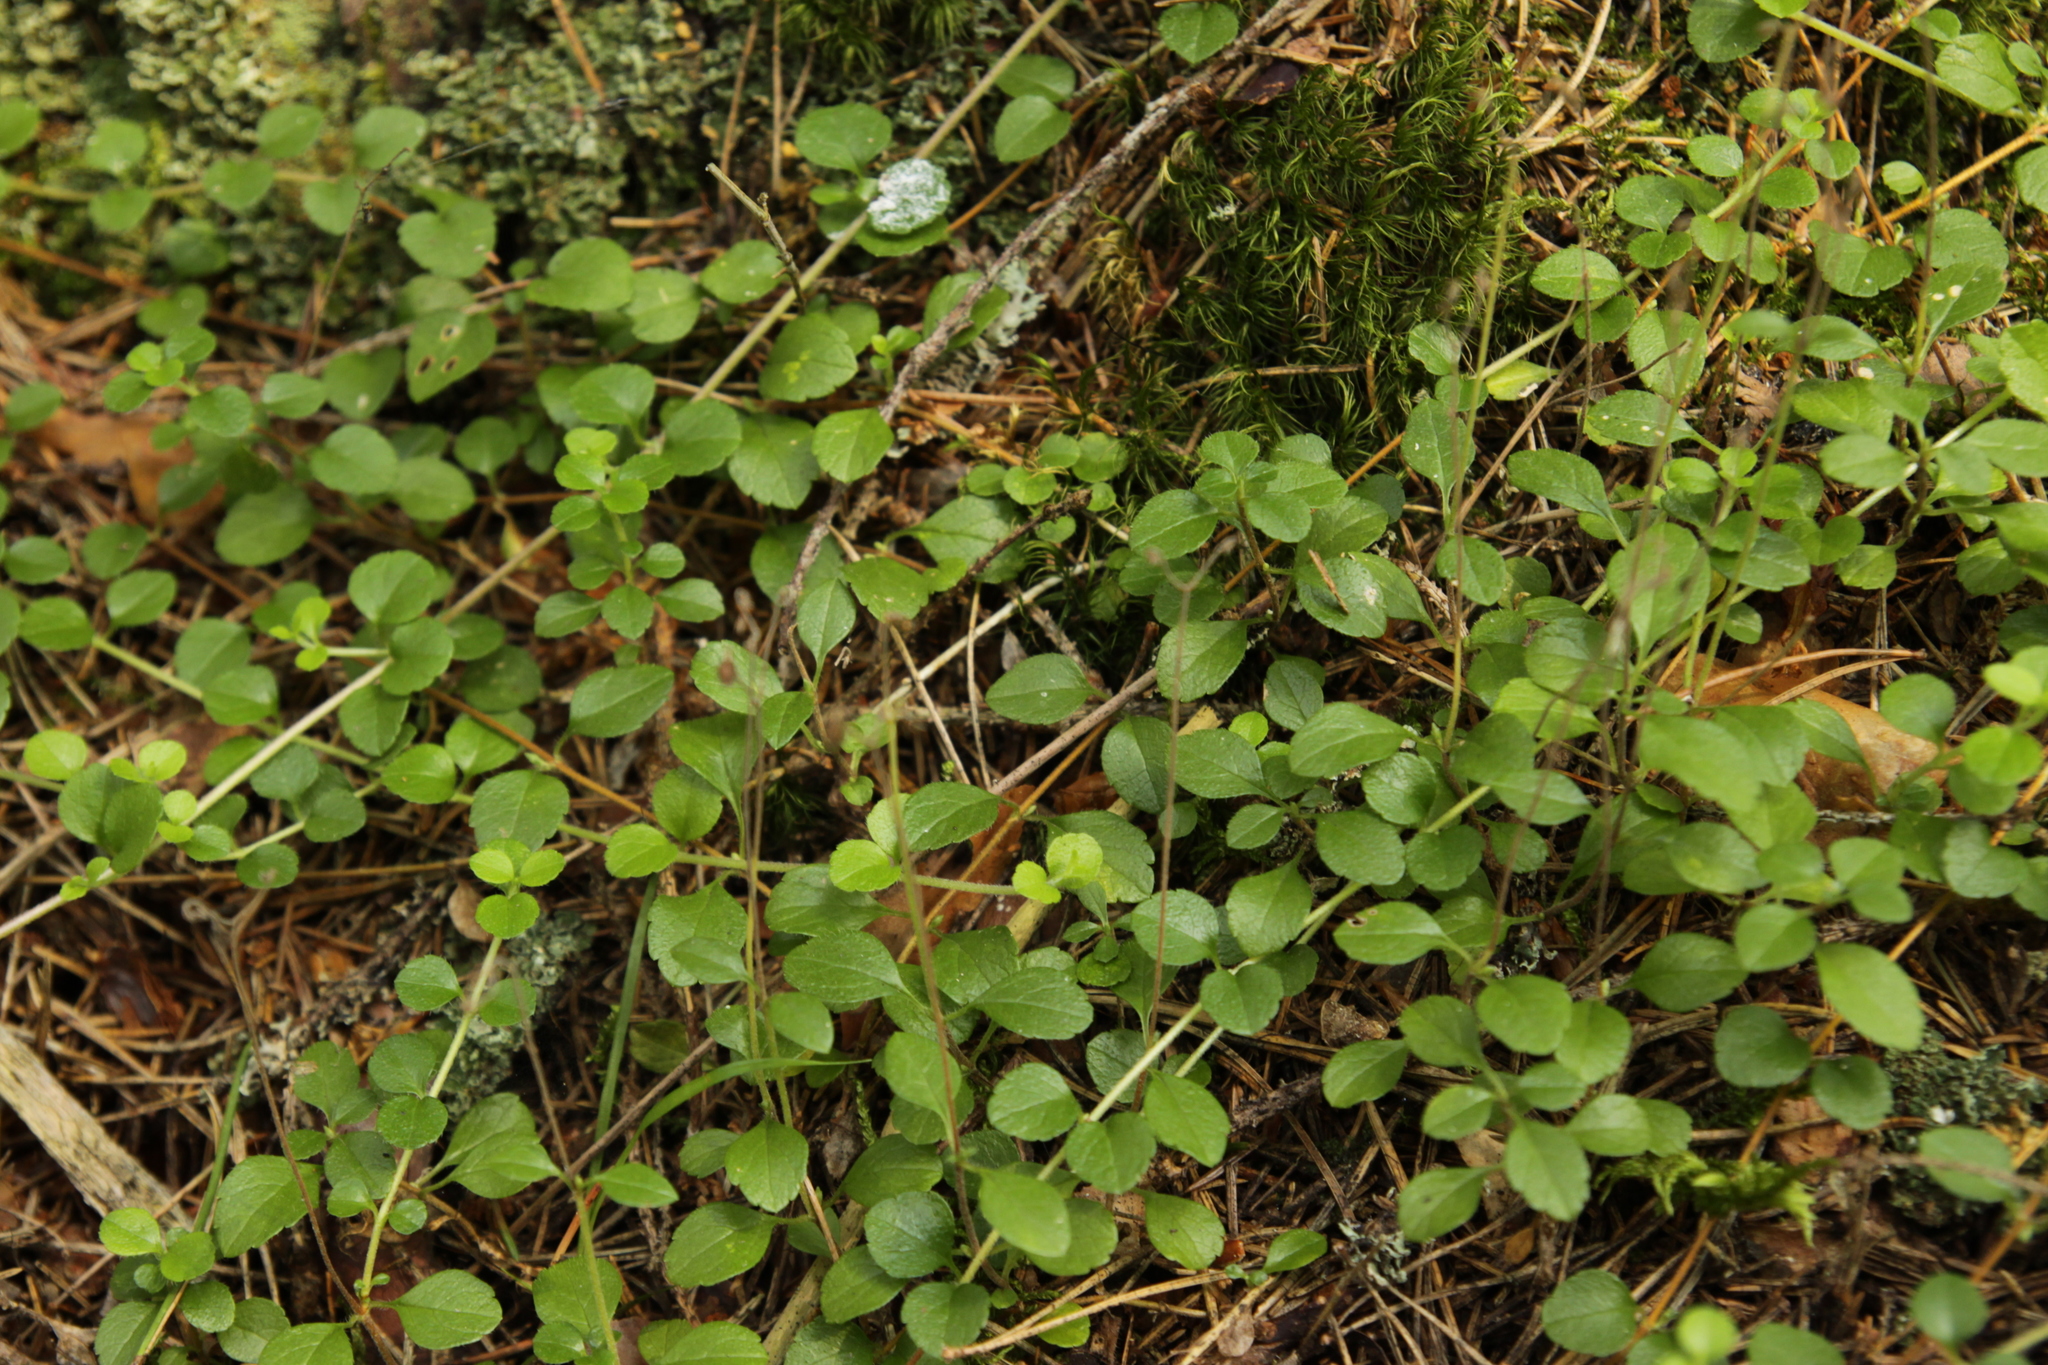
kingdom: Plantae
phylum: Tracheophyta
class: Magnoliopsida
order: Dipsacales
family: Caprifoliaceae
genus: Linnaea
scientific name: Linnaea borealis
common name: Twinflower
